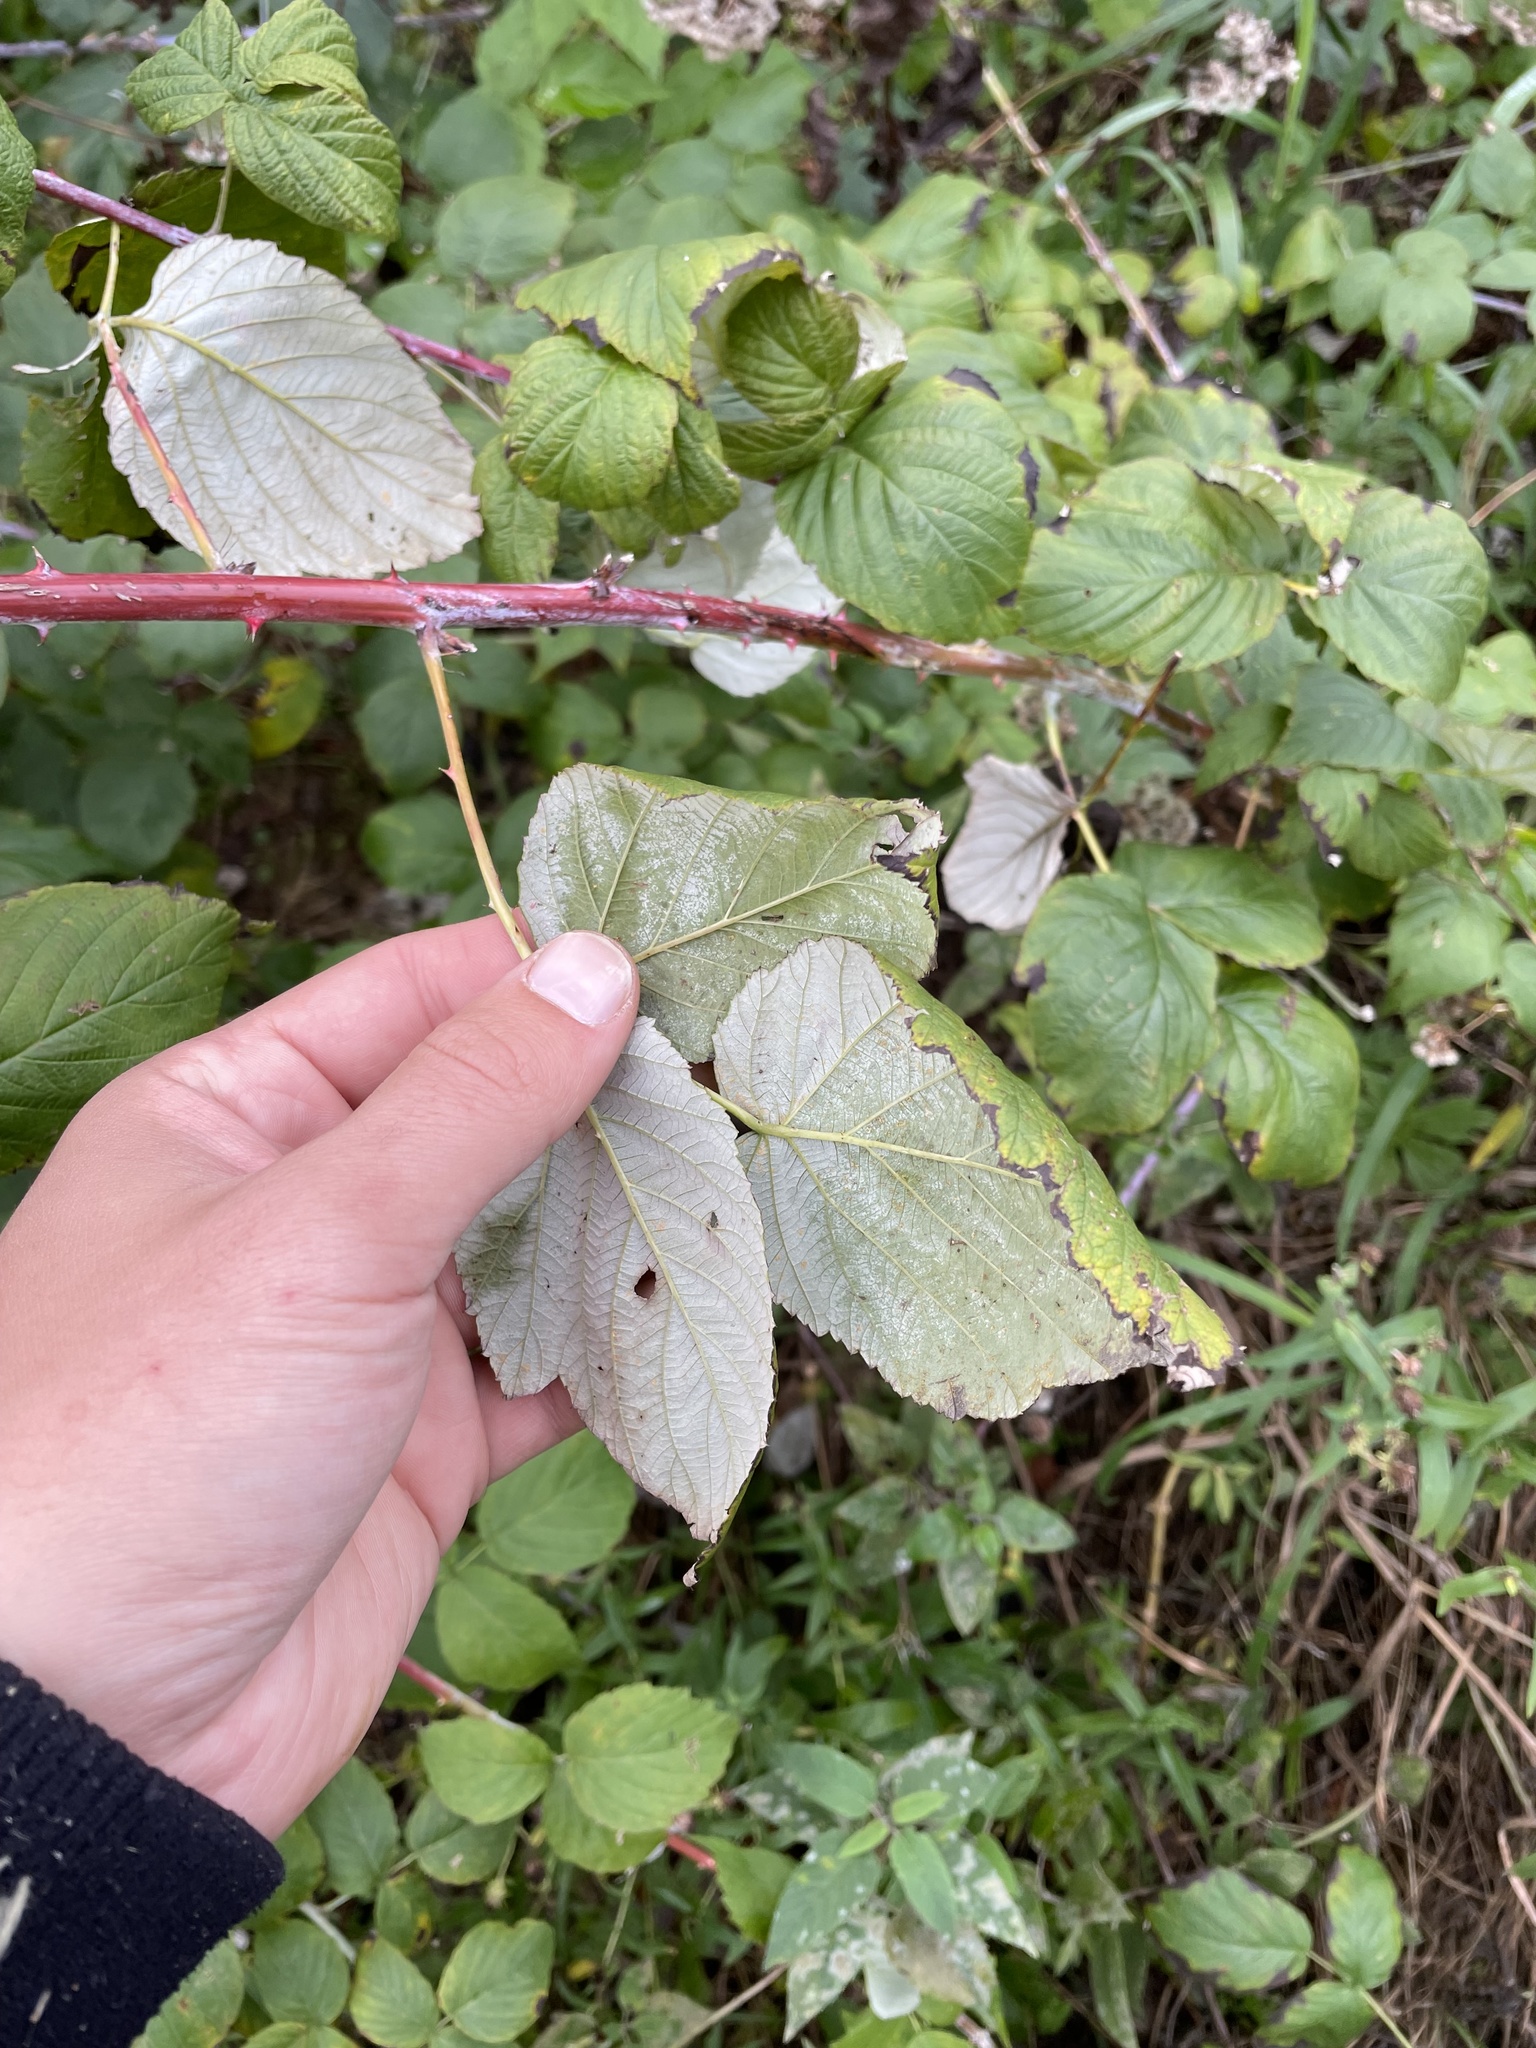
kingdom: Plantae
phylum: Tracheophyta
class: Magnoliopsida
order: Rosales
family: Rosaceae
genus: Rubus
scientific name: Rubus occidentalis
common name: Black raspberry
